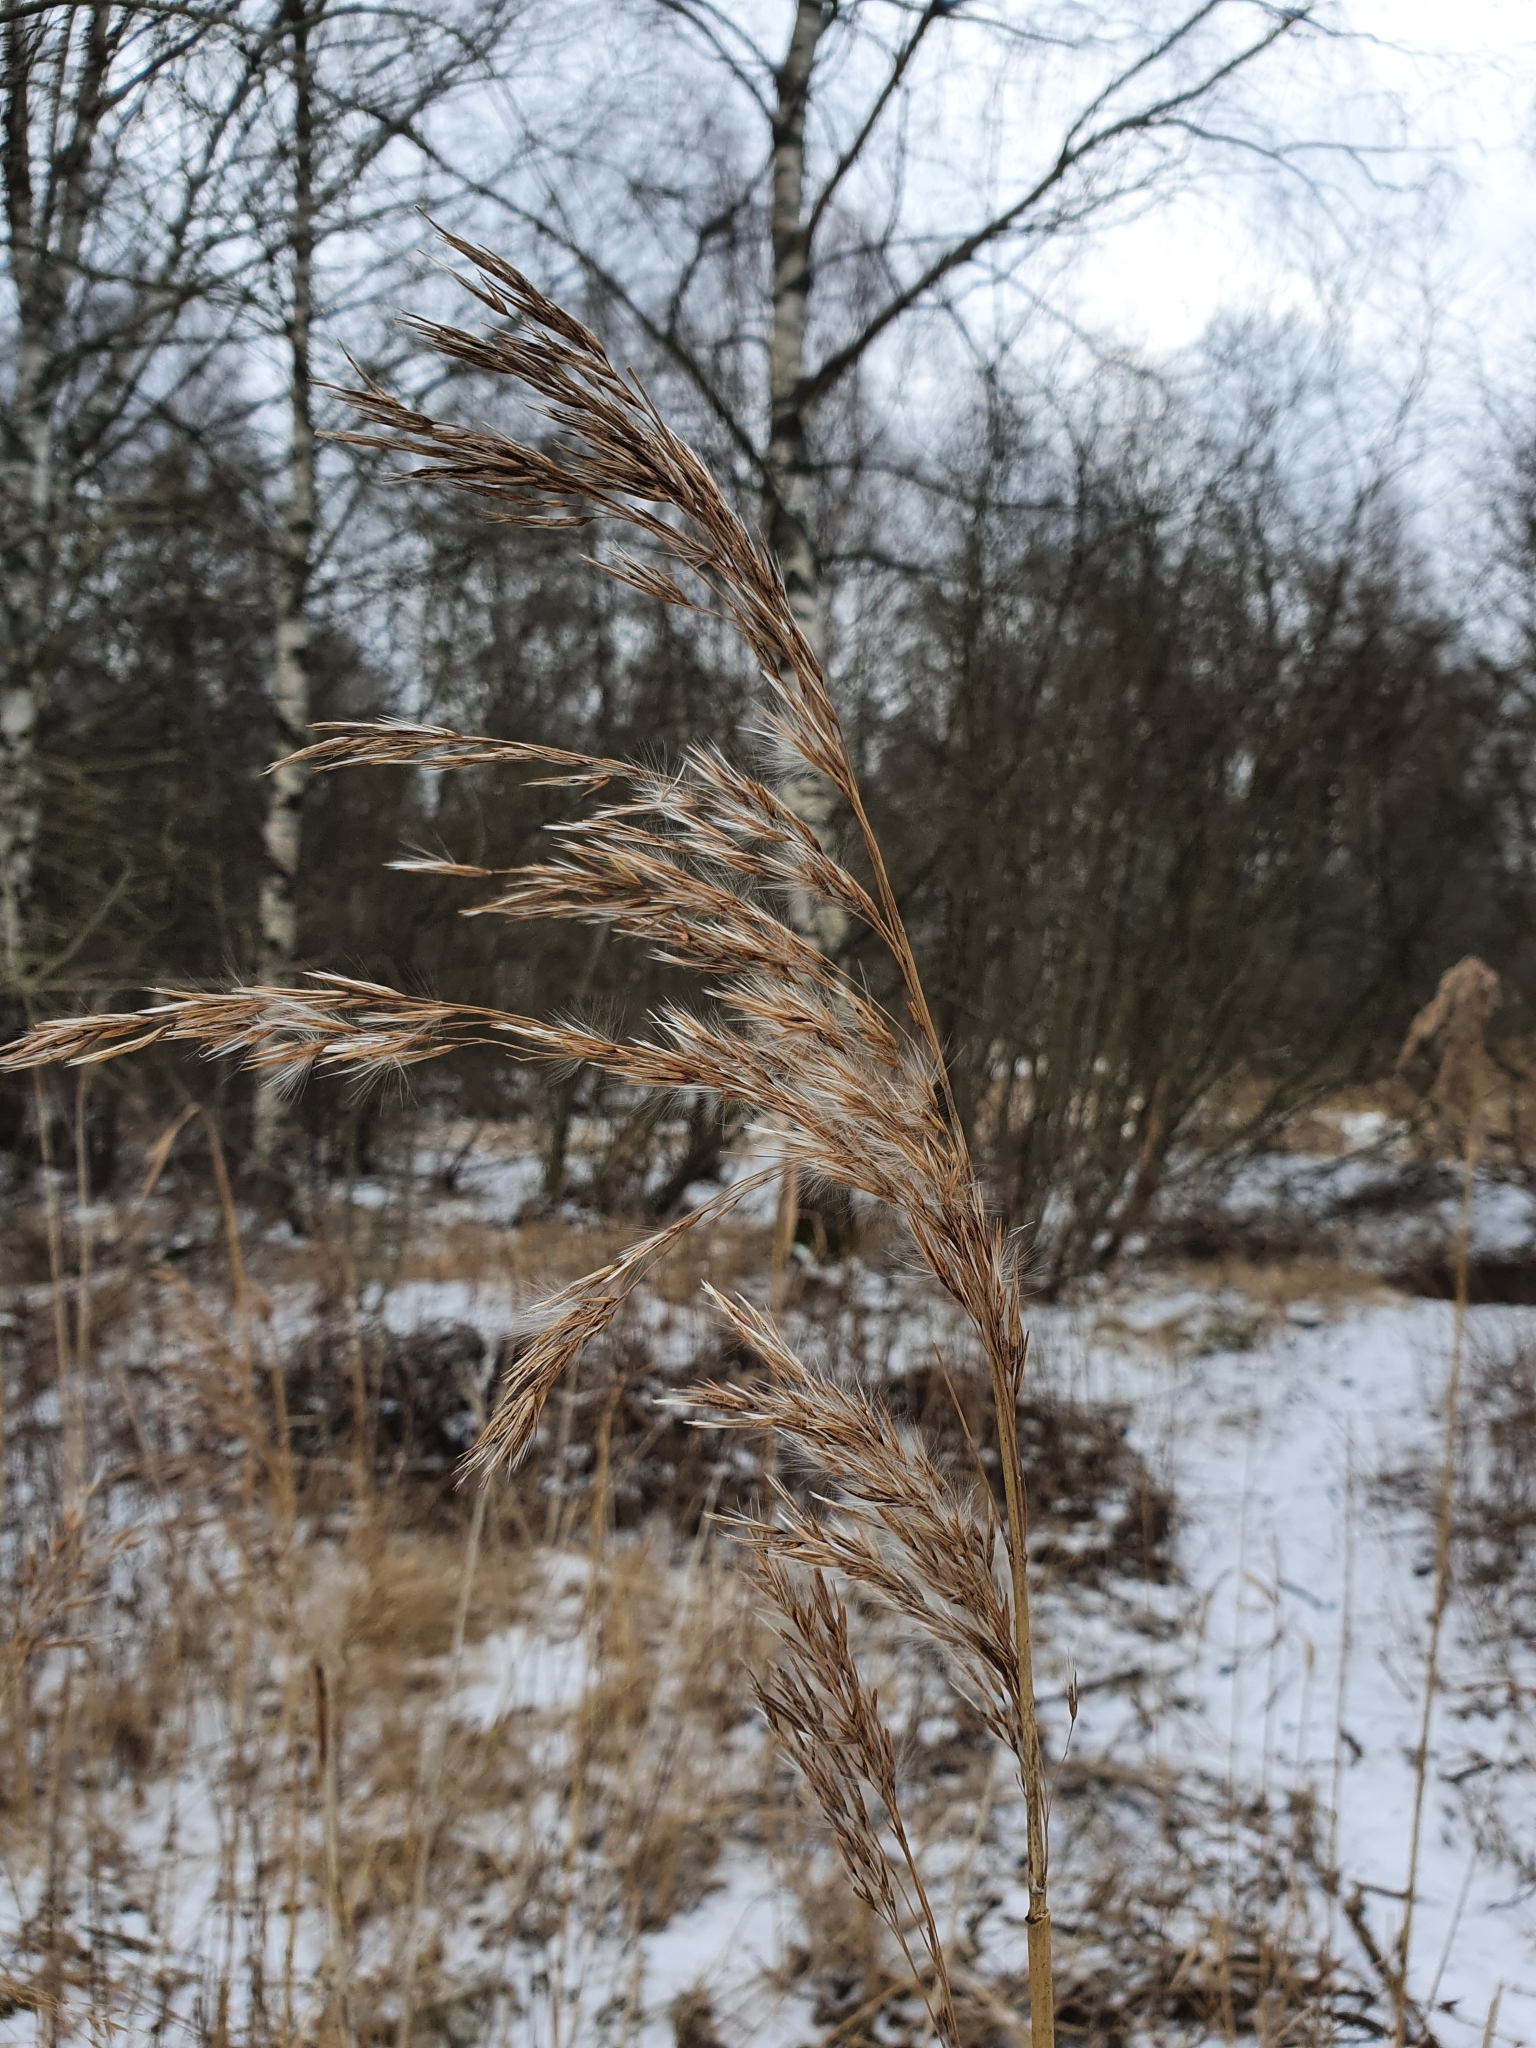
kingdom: Plantae
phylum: Tracheophyta
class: Liliopsida
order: Poales
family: Poaceae
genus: Phragmites
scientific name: Phragmites australis
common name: Common reed
